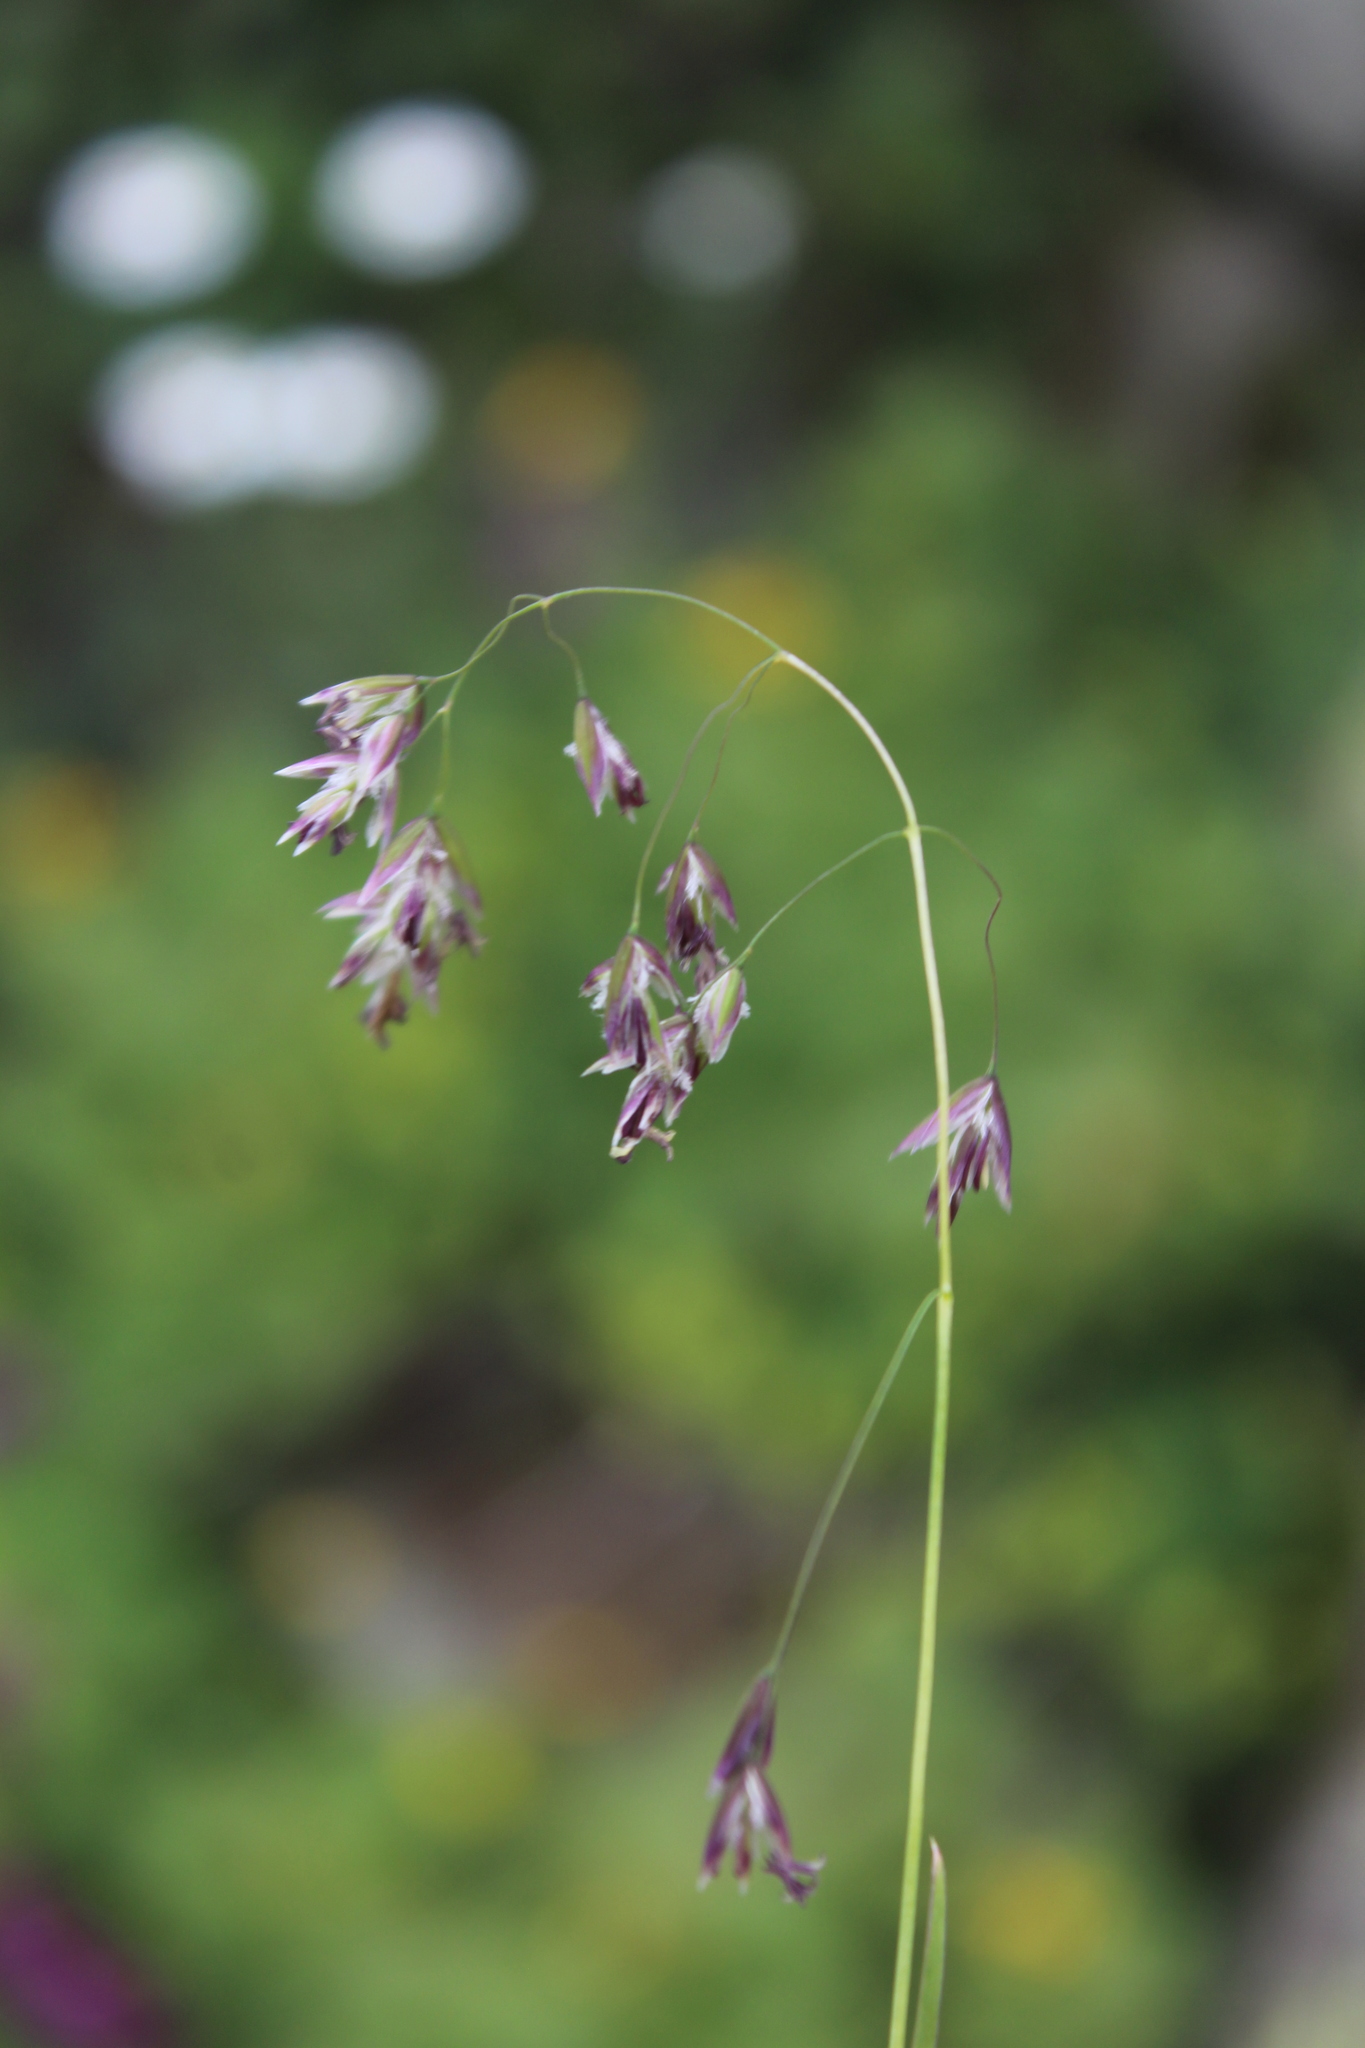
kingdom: Plantae
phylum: Tracheophyta
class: Liliopsida
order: Poales
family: Poaceae
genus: Hyalopoa
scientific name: Hyalopoa pontica
